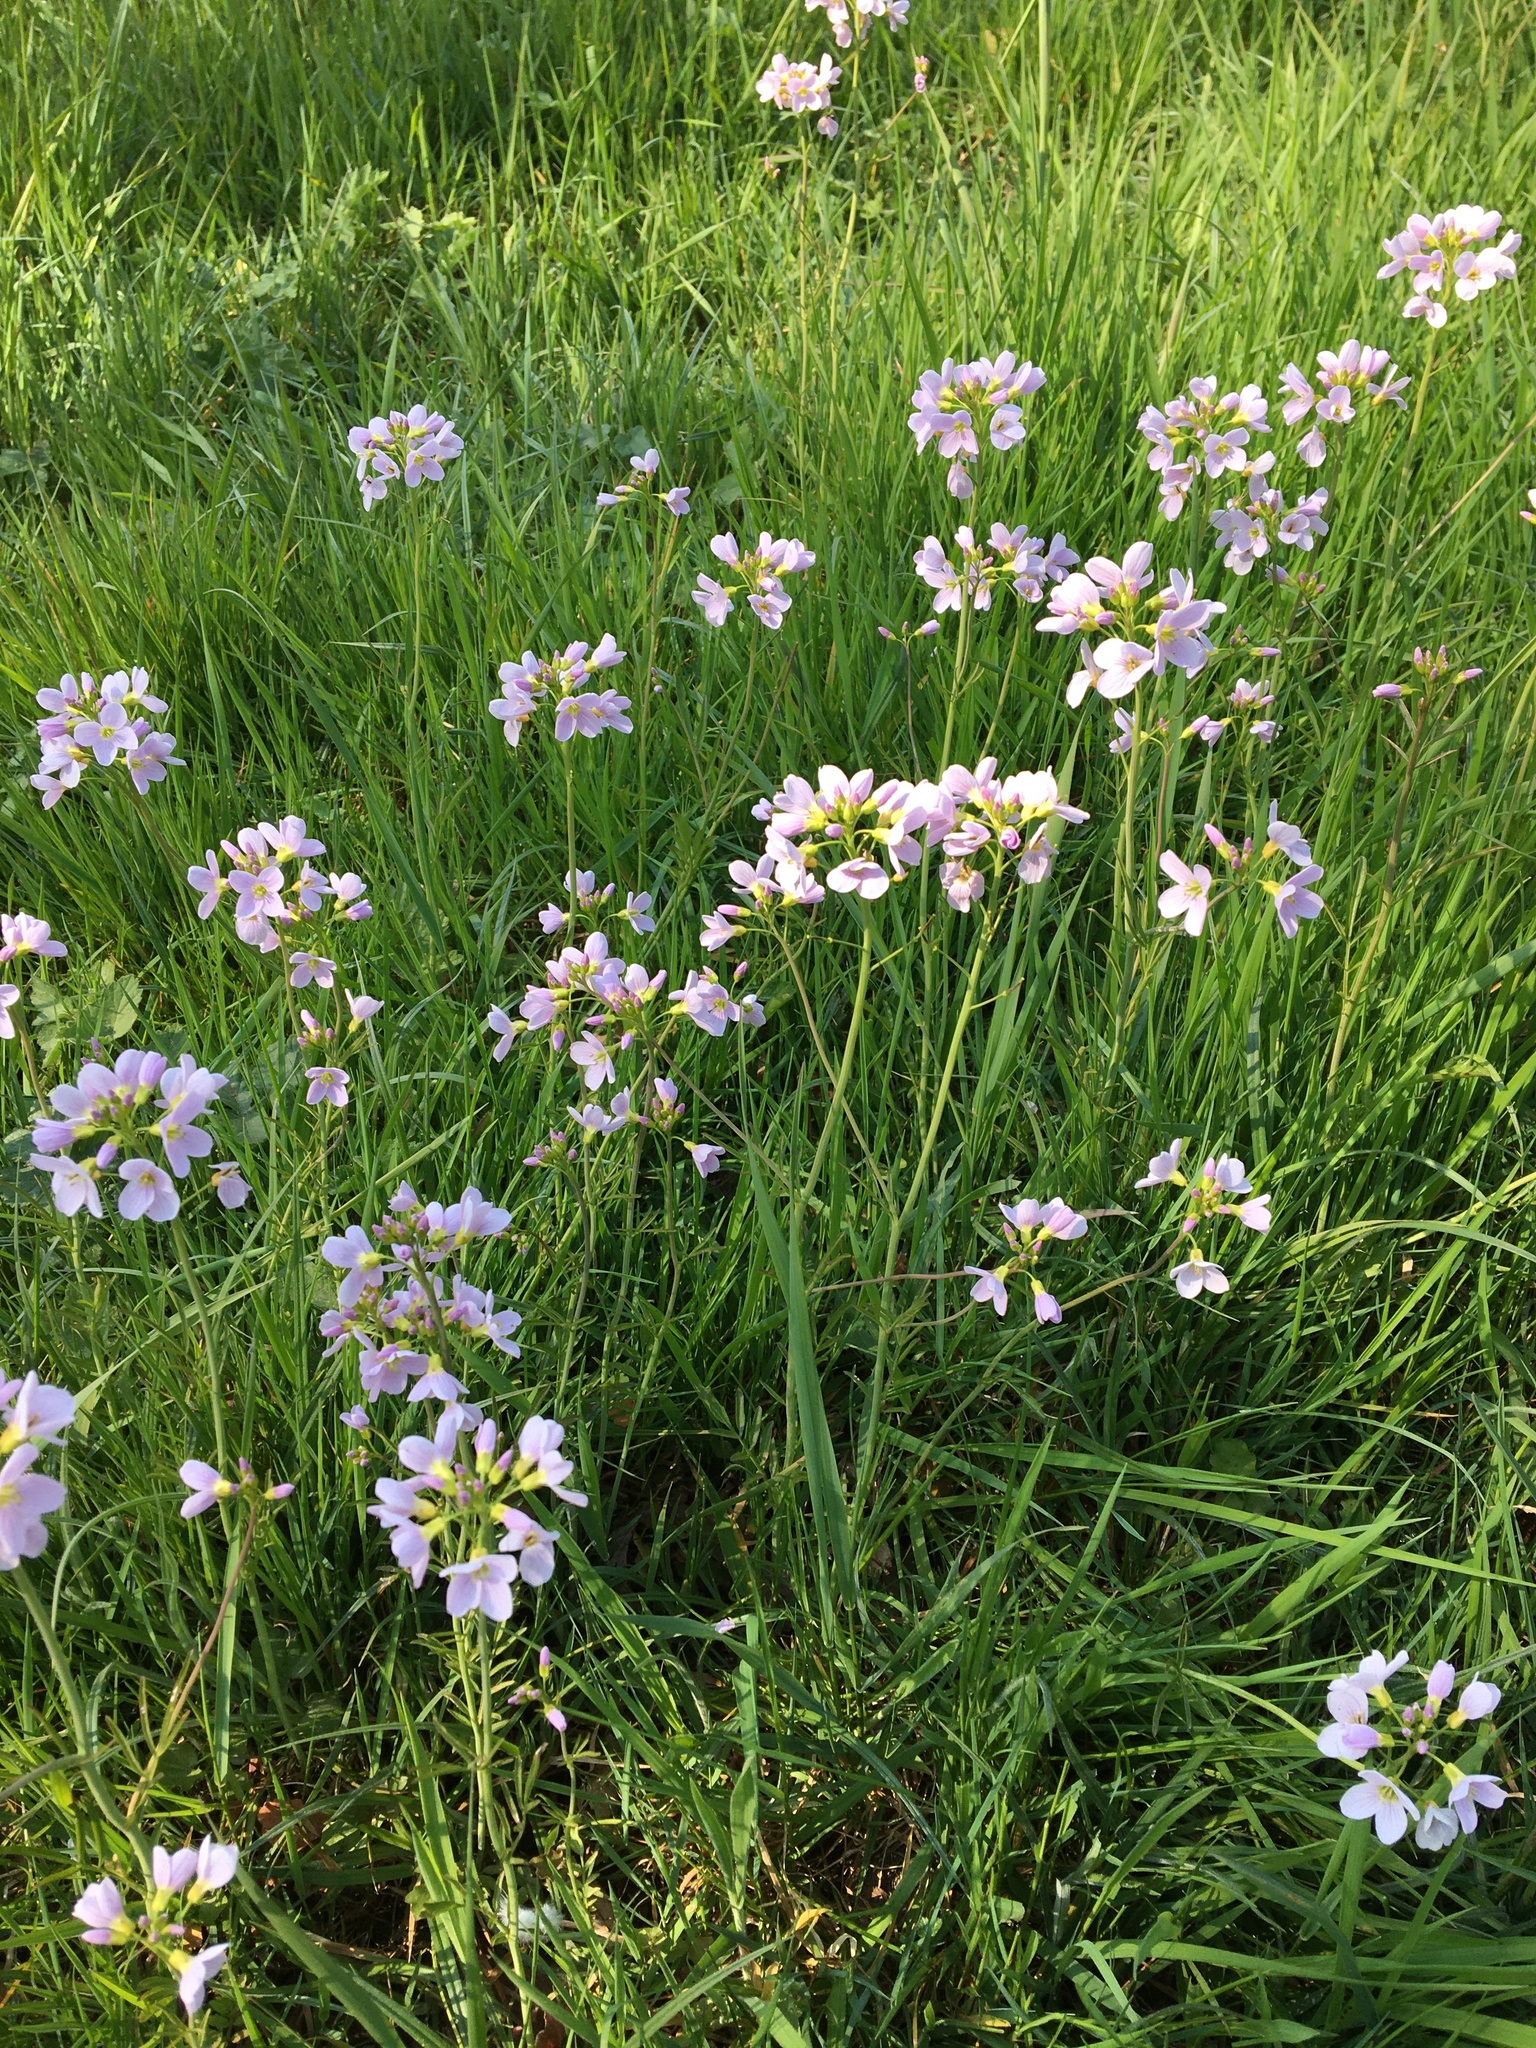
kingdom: Plantae
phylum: Tracheophyta
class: Magnoliopsida
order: Brassicales
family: Brassicaceae
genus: Cardamine
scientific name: Cardamine pratensis
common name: Cuckoo flower
